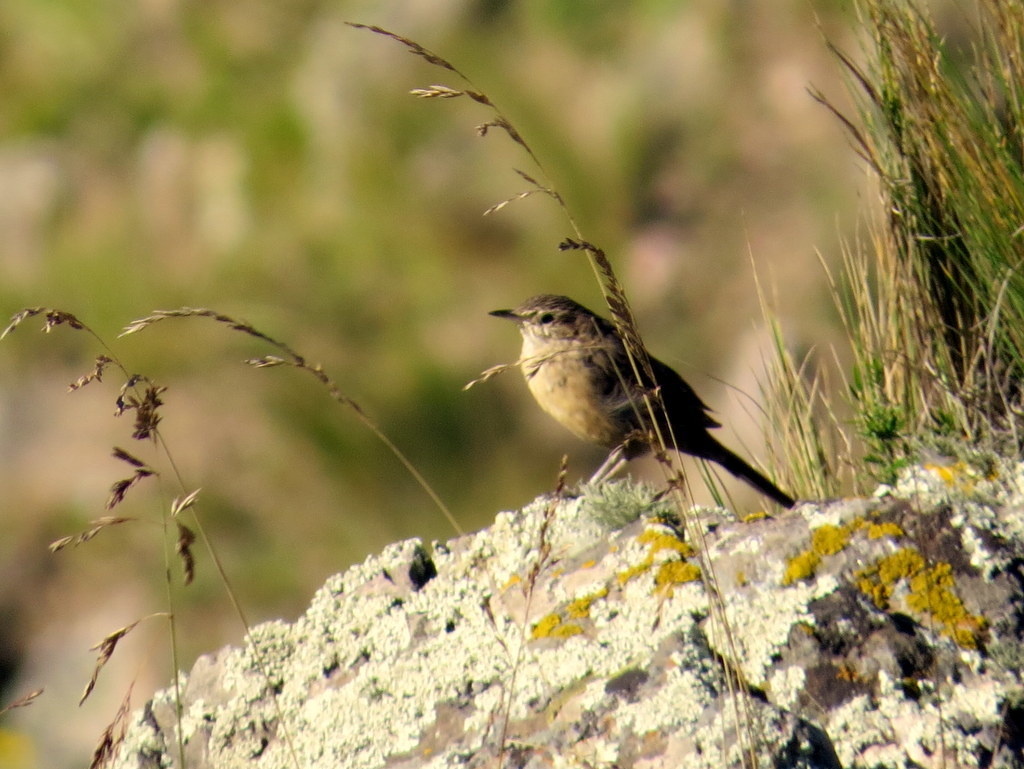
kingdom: Animalia
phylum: Chordata
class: Aves
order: Passeriformes
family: Furnariidae
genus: Asthenes
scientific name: Asthenes modesta
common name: Cordilleran canastero
